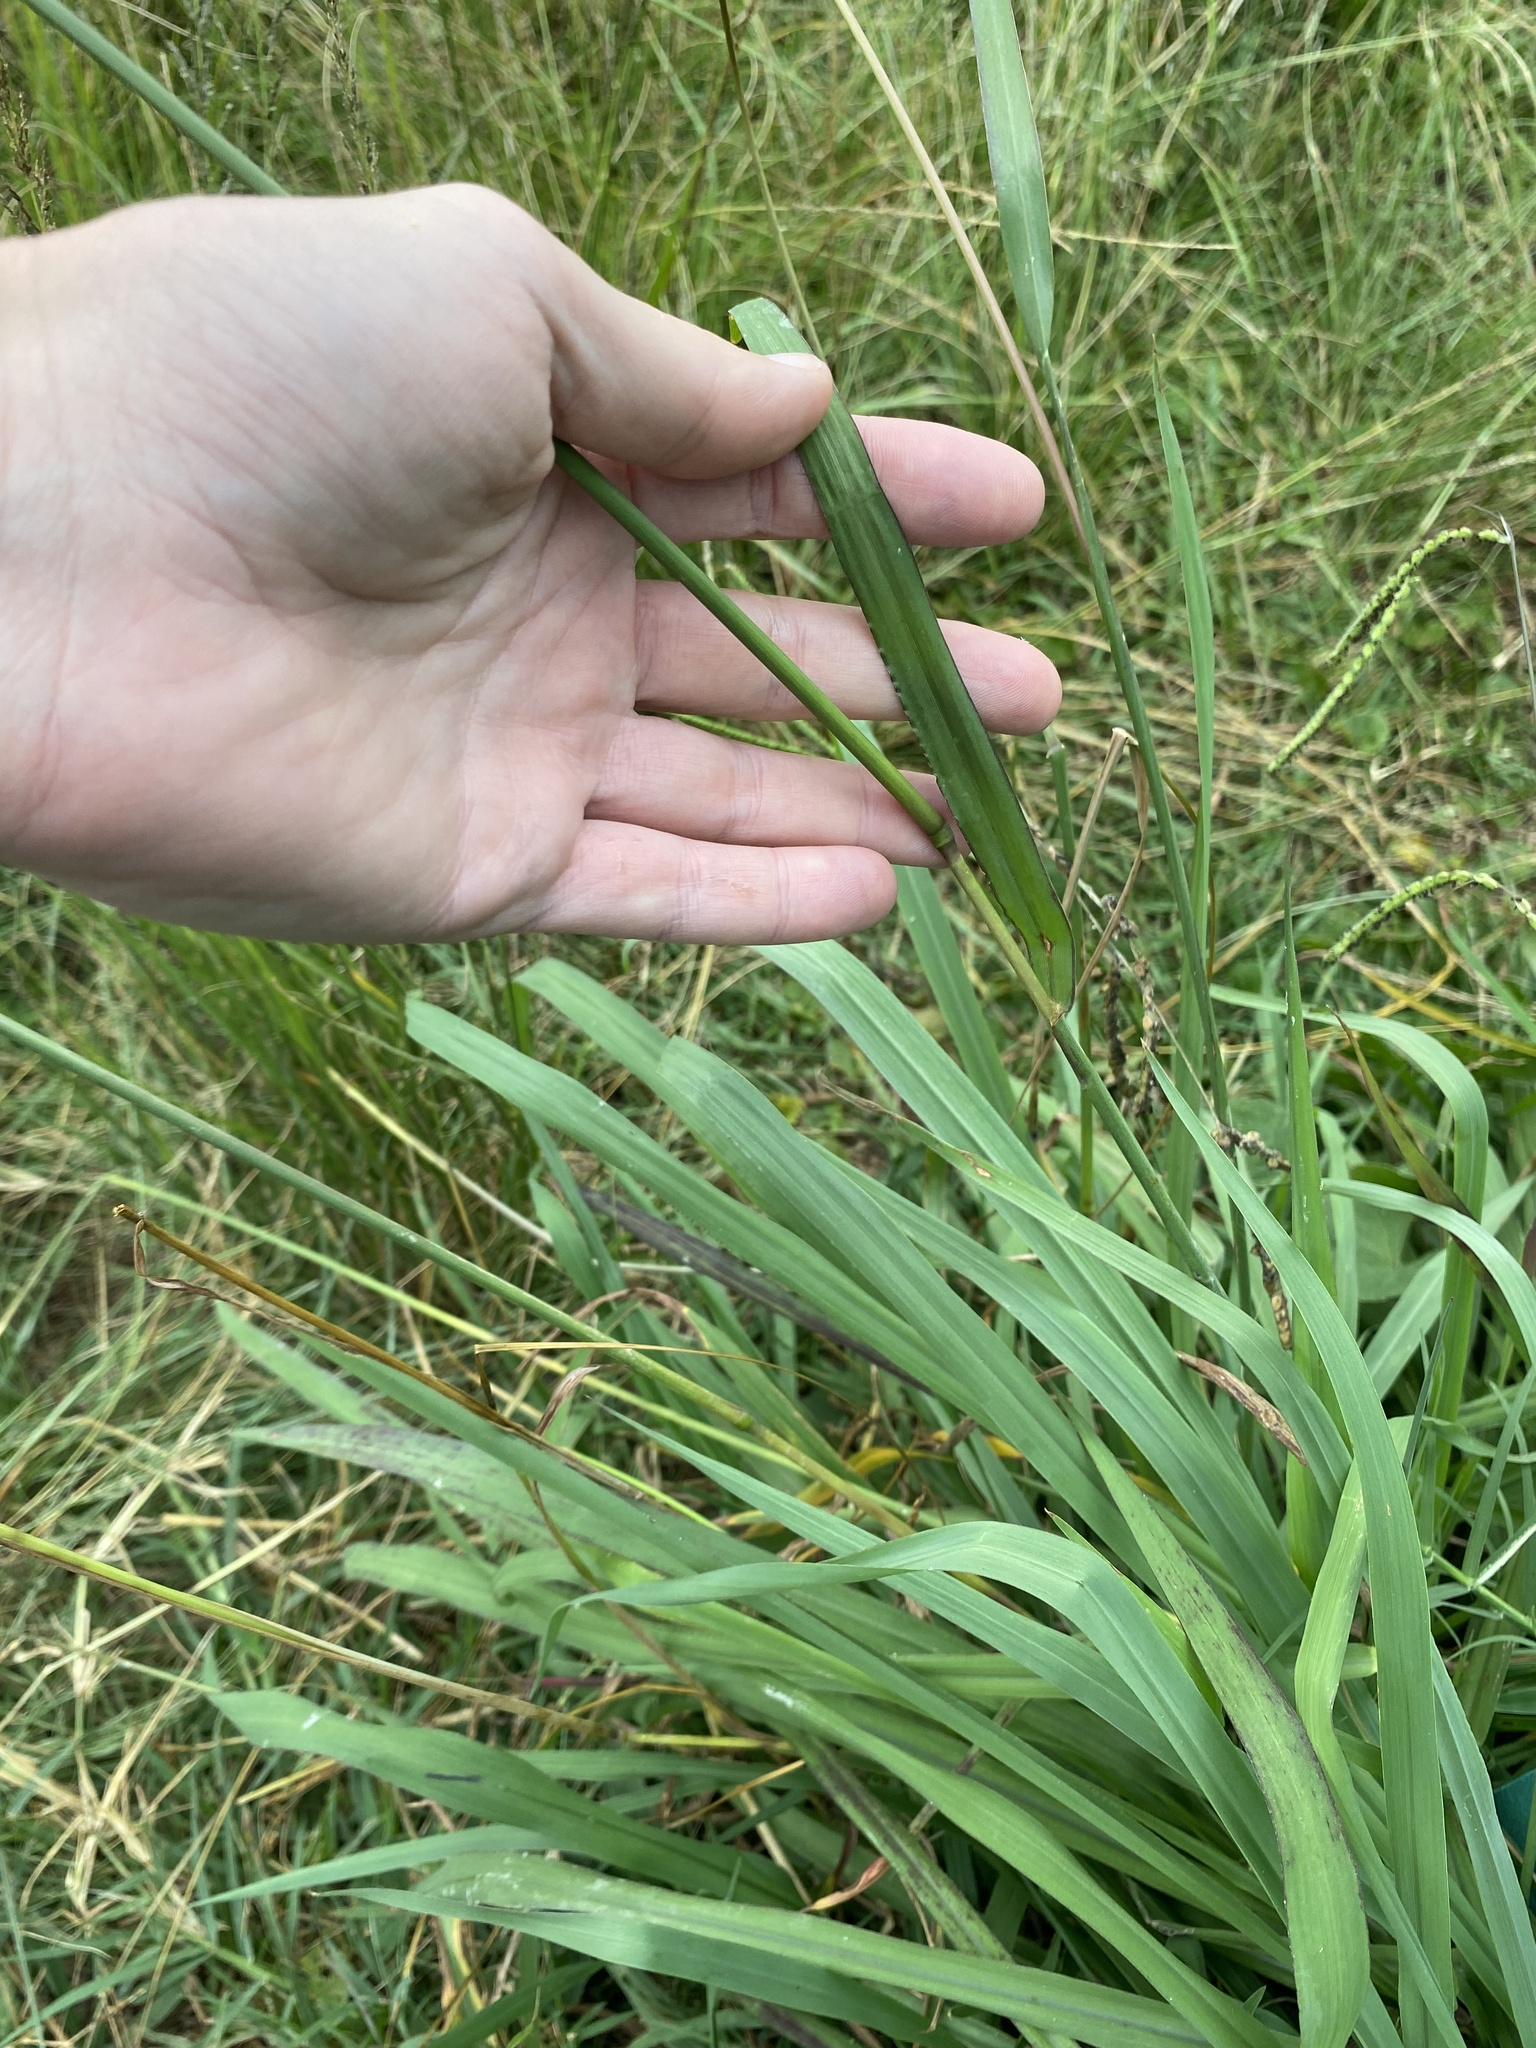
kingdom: Plantae
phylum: Tracheophyta
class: Liliopsida
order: Poales
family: Poaceae
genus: Paspalum
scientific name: Paspalum dilatatum
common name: Dallisgrass
